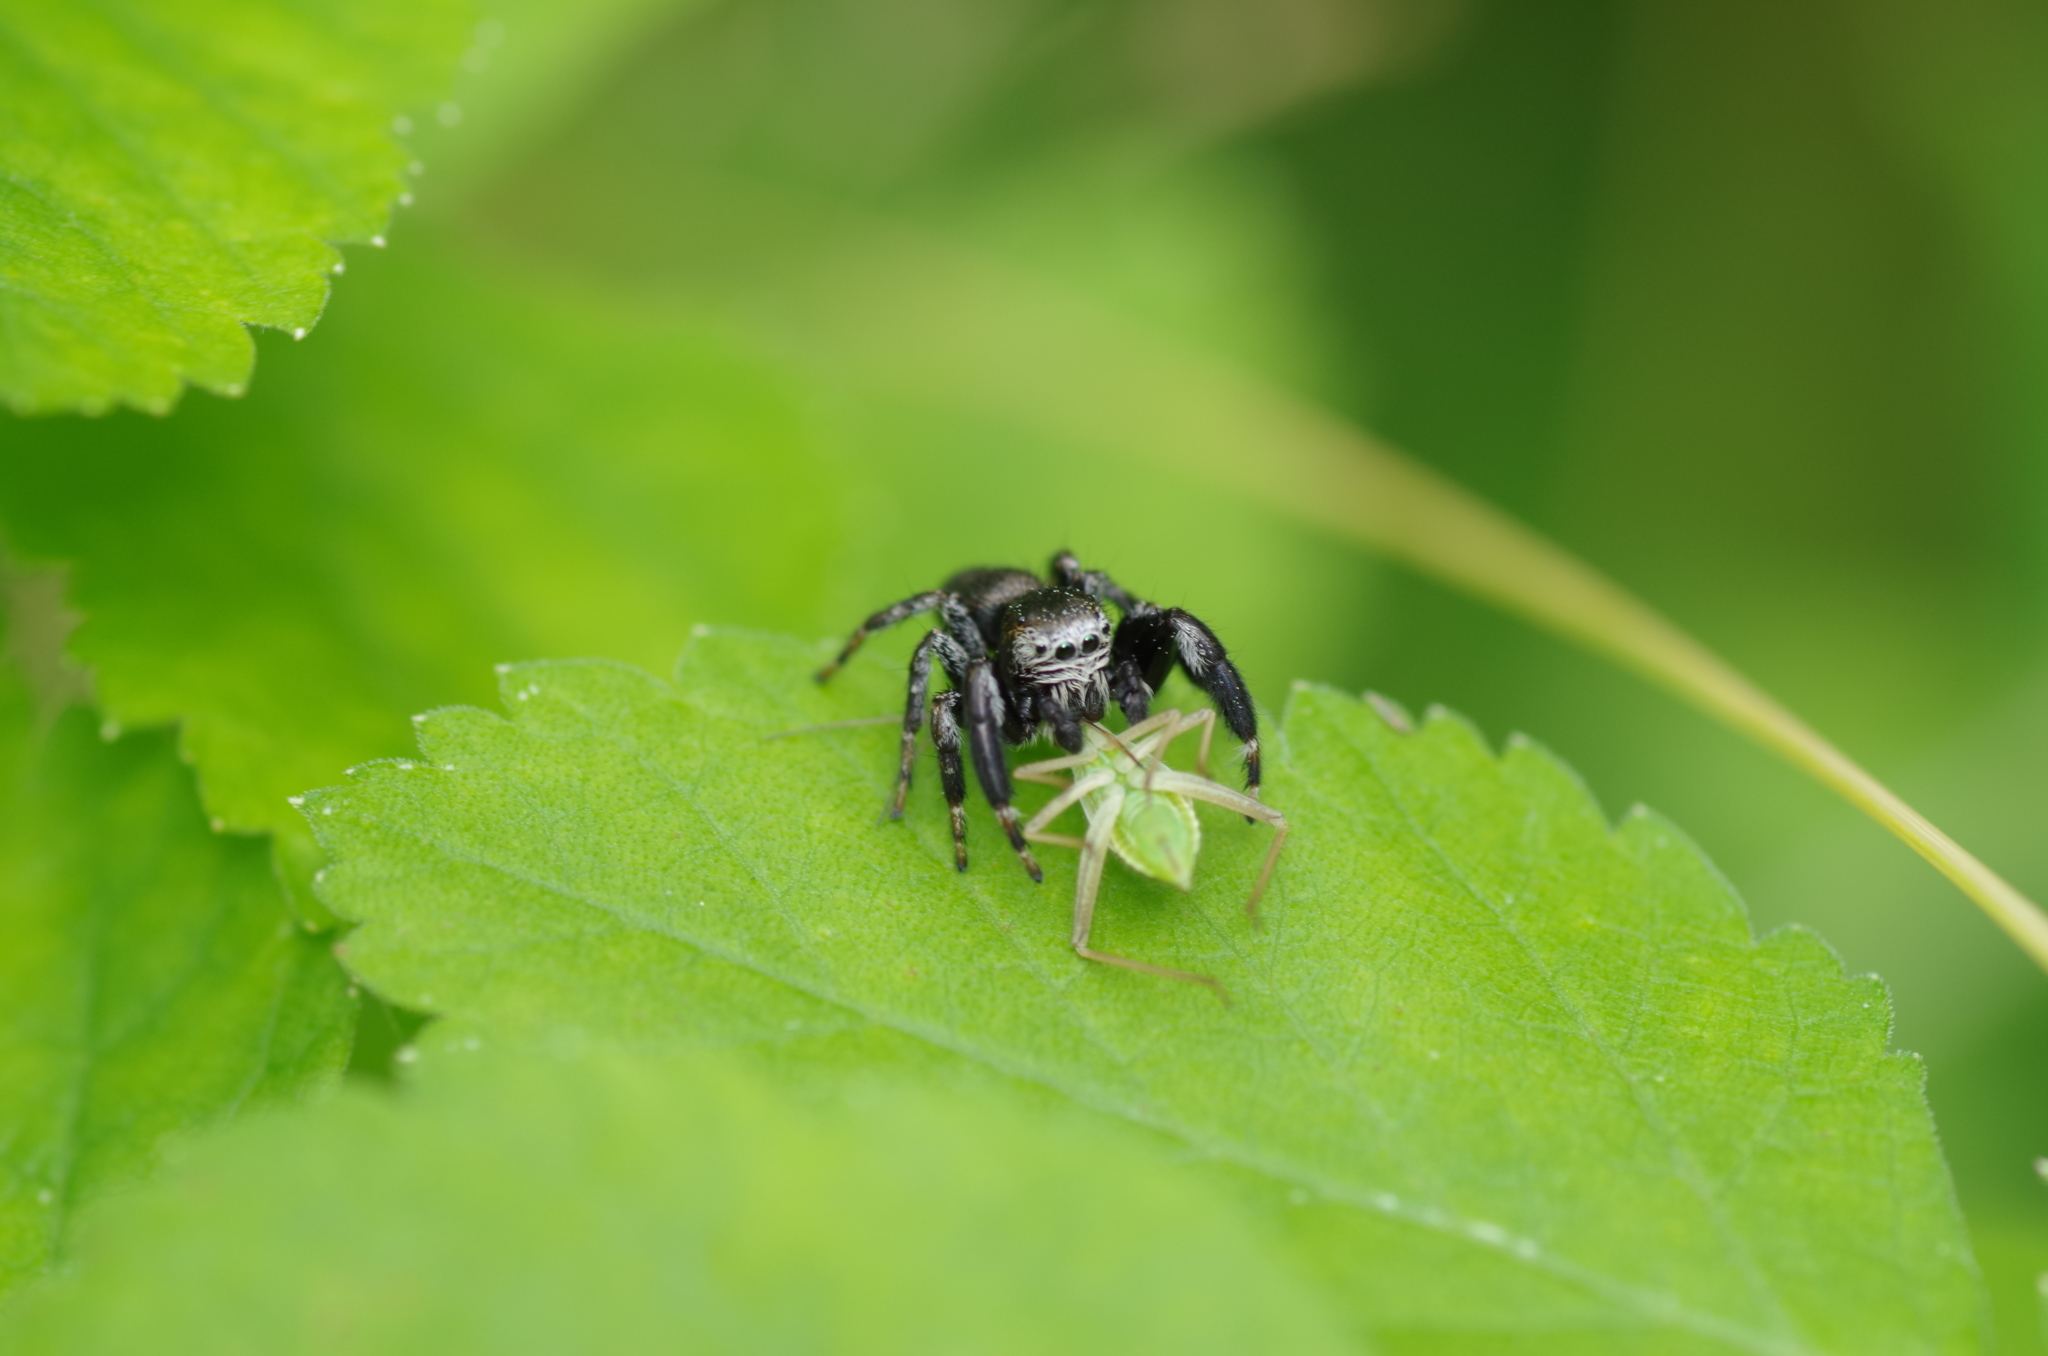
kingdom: Animalia
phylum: Arthropoda
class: Arachnida
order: Araneae
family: Salticidae
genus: Evarcha
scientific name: Evarcha arcuata
